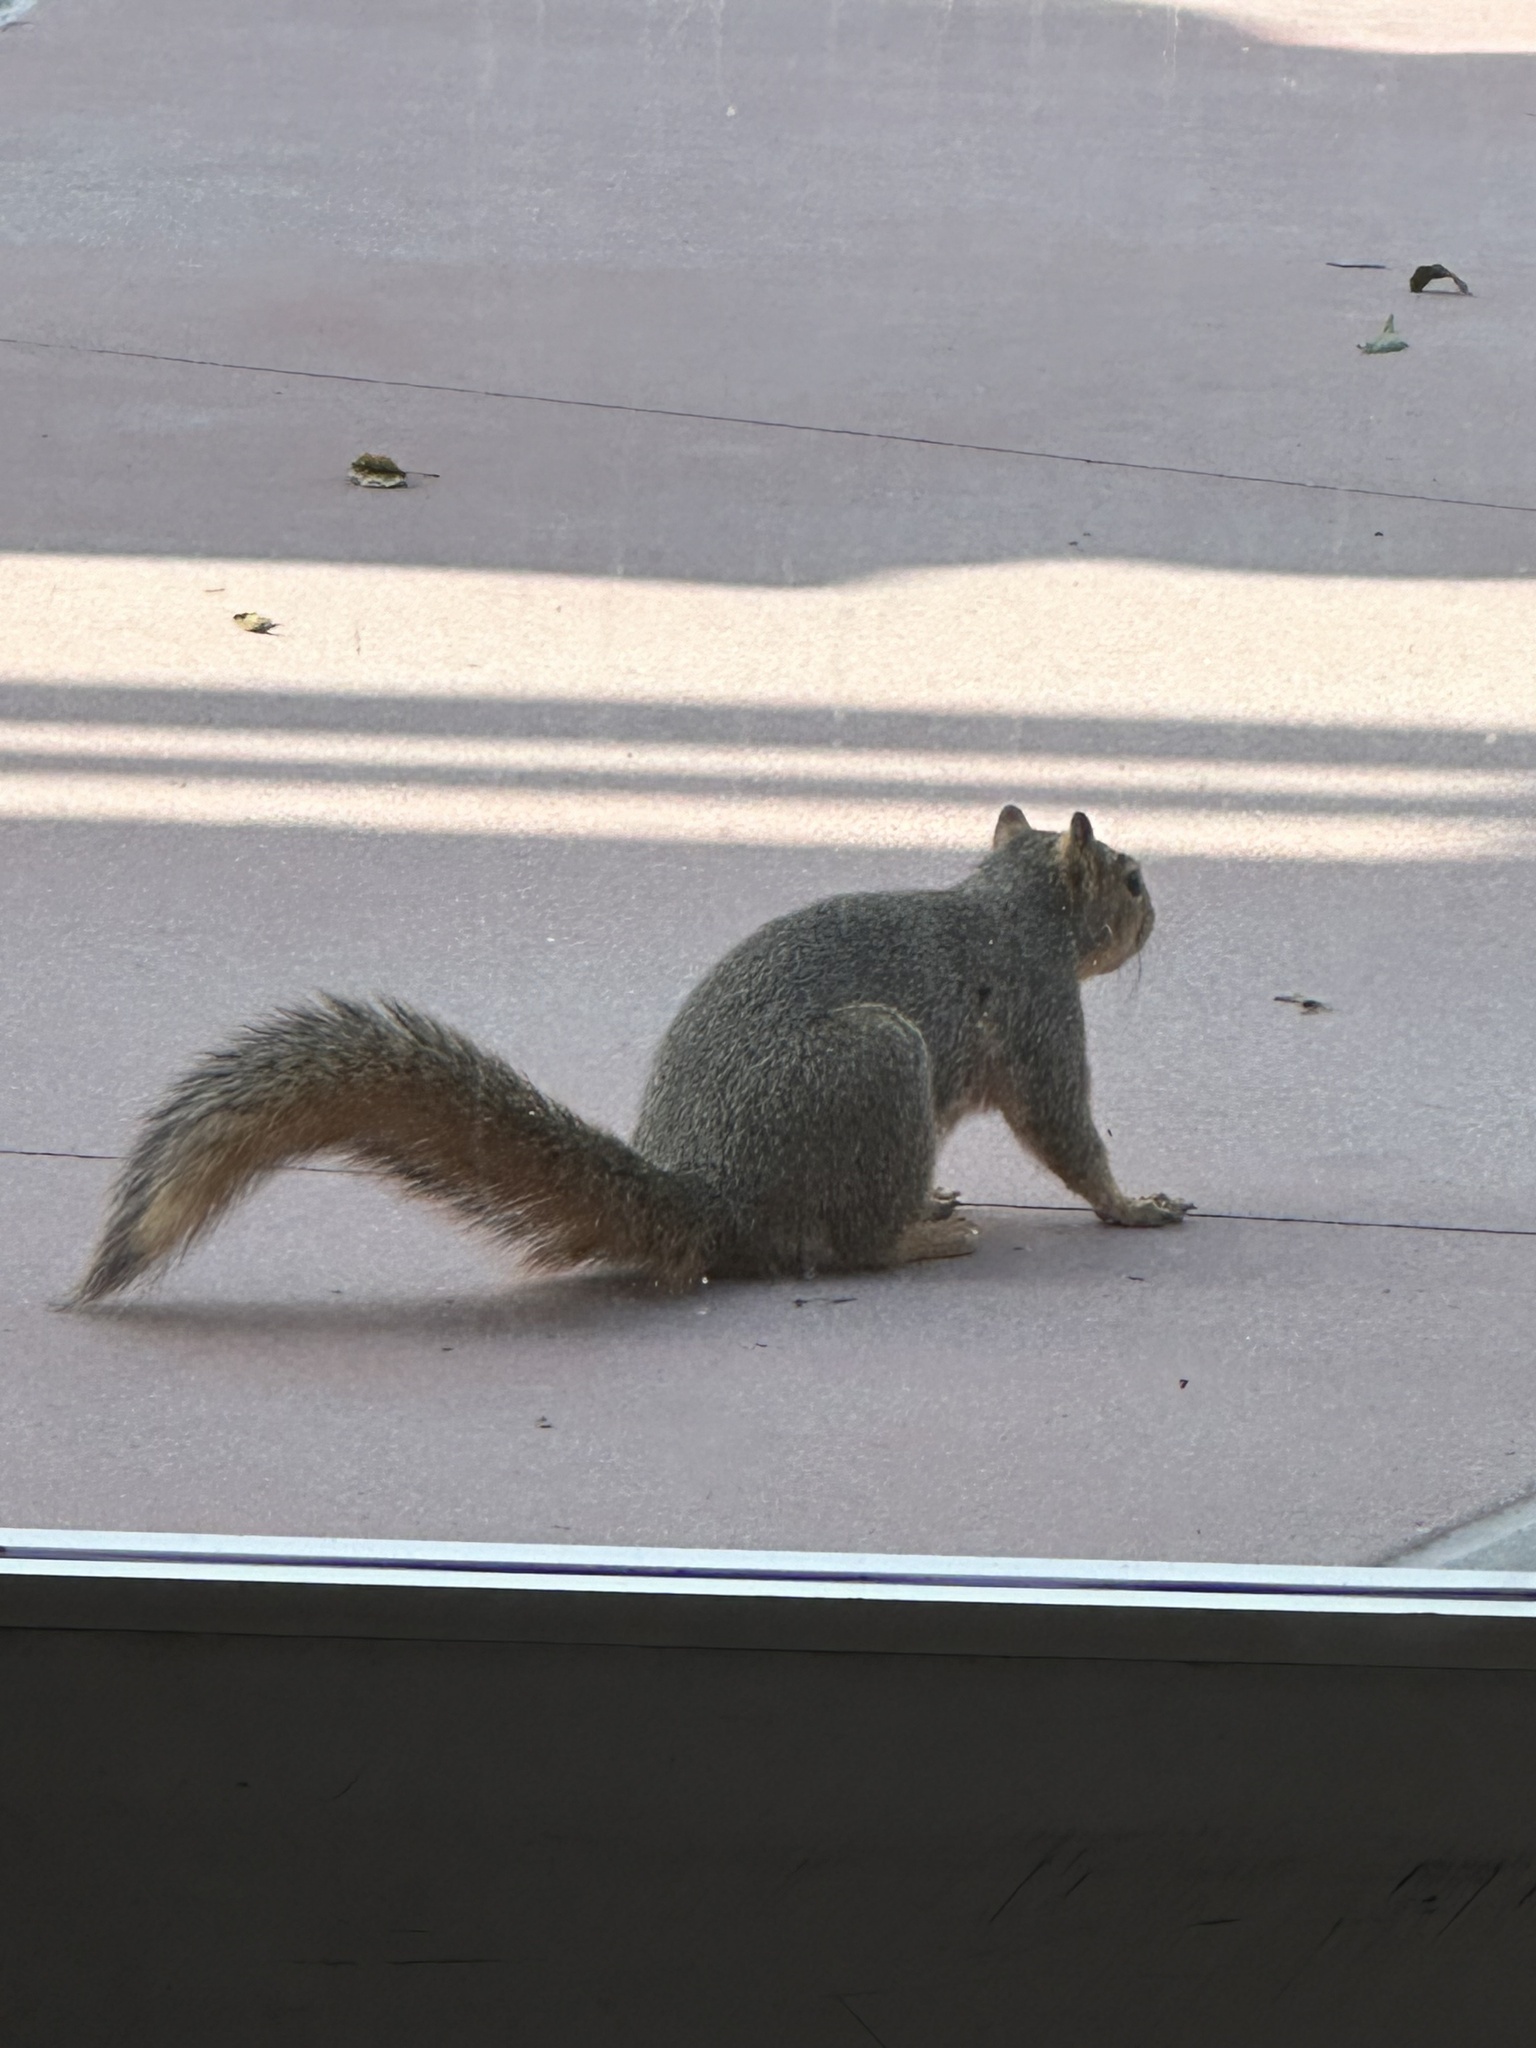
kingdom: Animalia
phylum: Chordata
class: Mammalia
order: Rodentia
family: Sciuridae
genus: Sciurus
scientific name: Sciurus niger
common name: Fox squirrel
